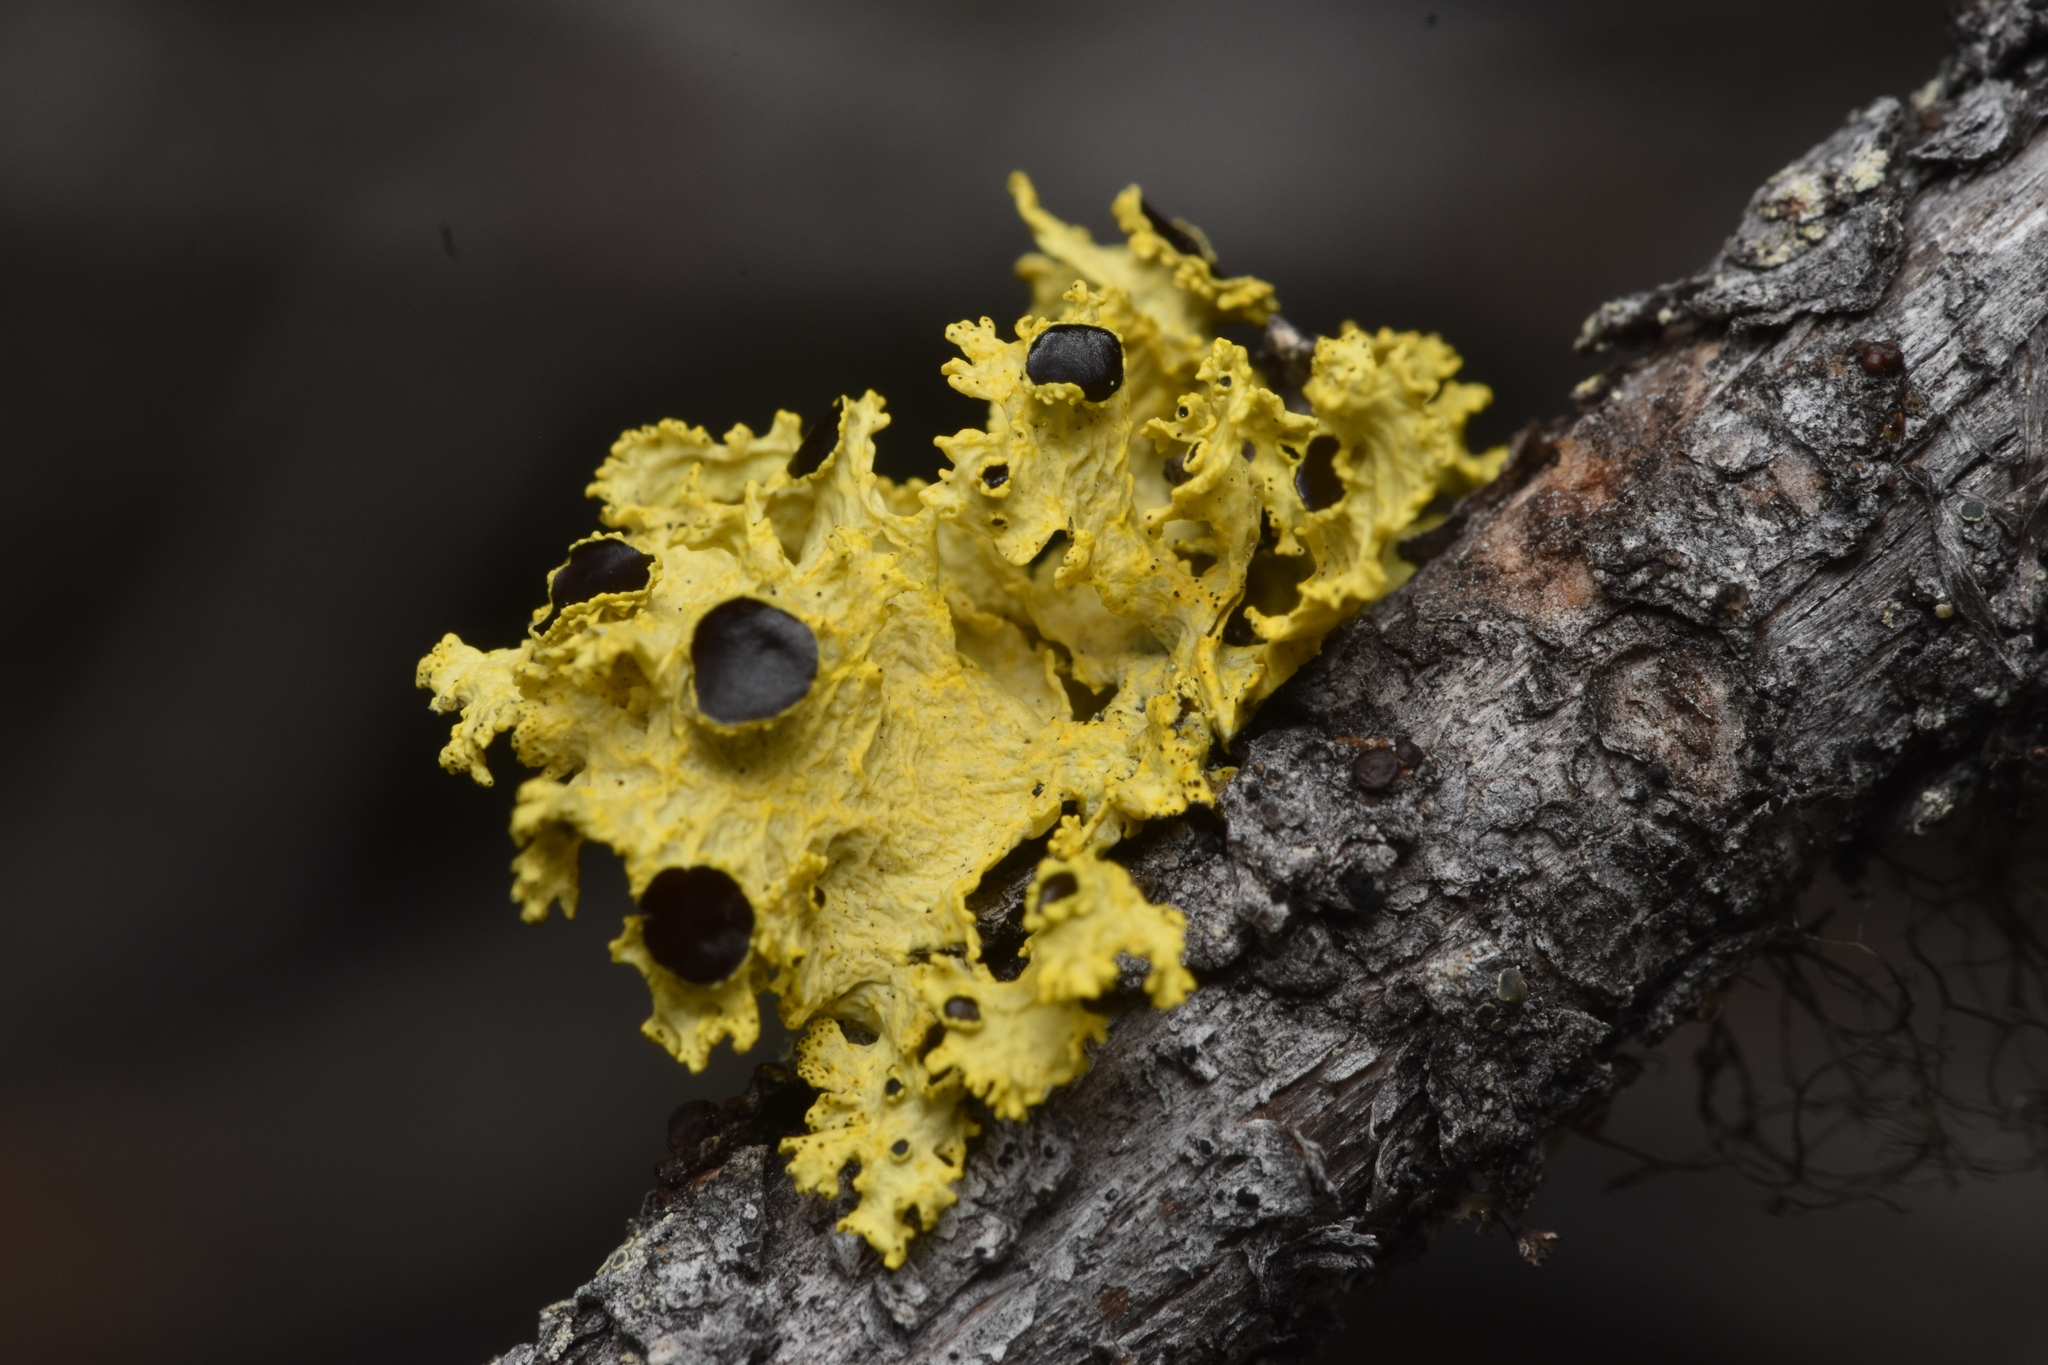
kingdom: Fungi
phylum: Ascomycota
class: Lecanoromycetes
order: Lecanorales
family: Parmeliaceae
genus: Vulpicida
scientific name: Vulpicida canadensis
